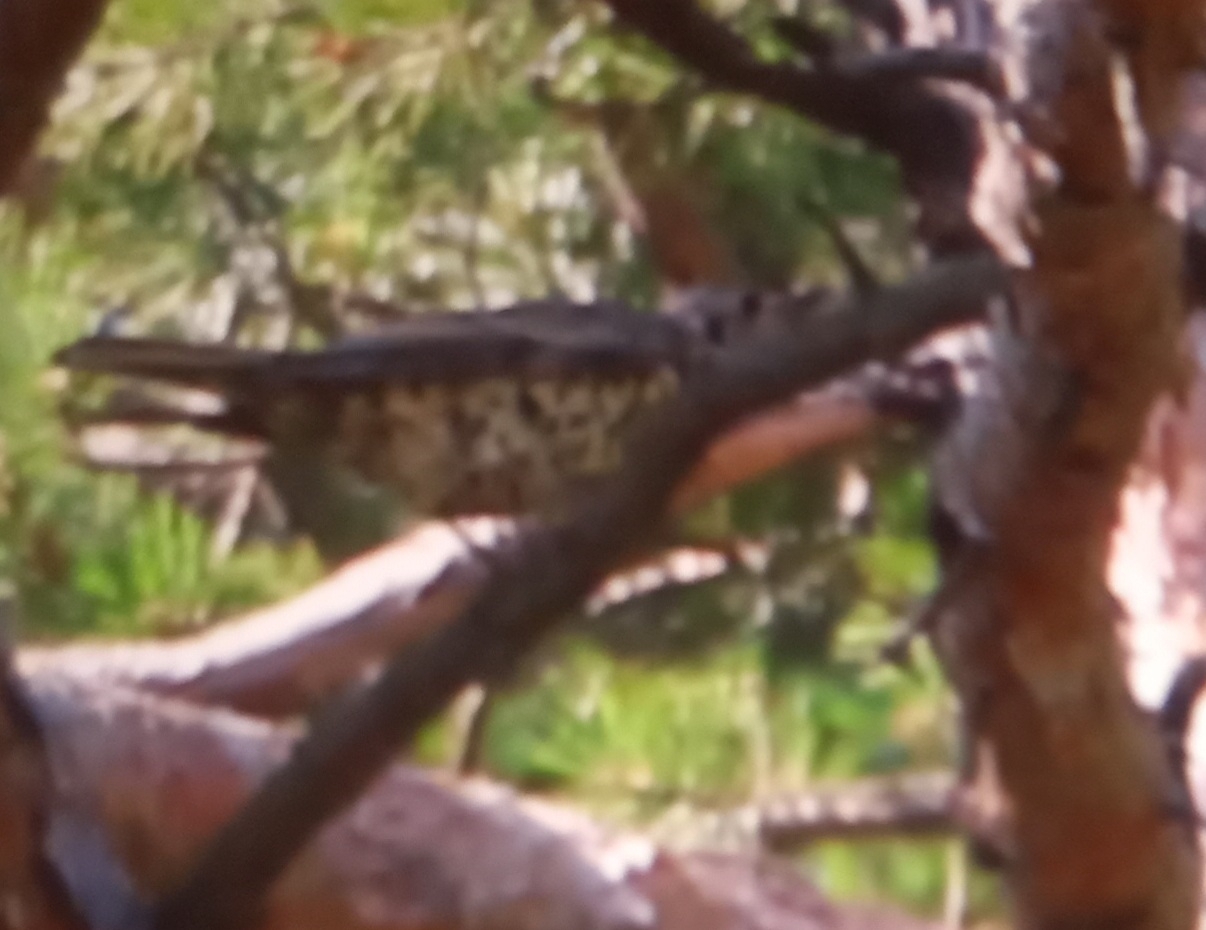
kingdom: Animalia
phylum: Chordata
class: Aves
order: Passeriformes
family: Turdidae
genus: Turdus
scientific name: Turdus viscivorus
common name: Mistle thrush
